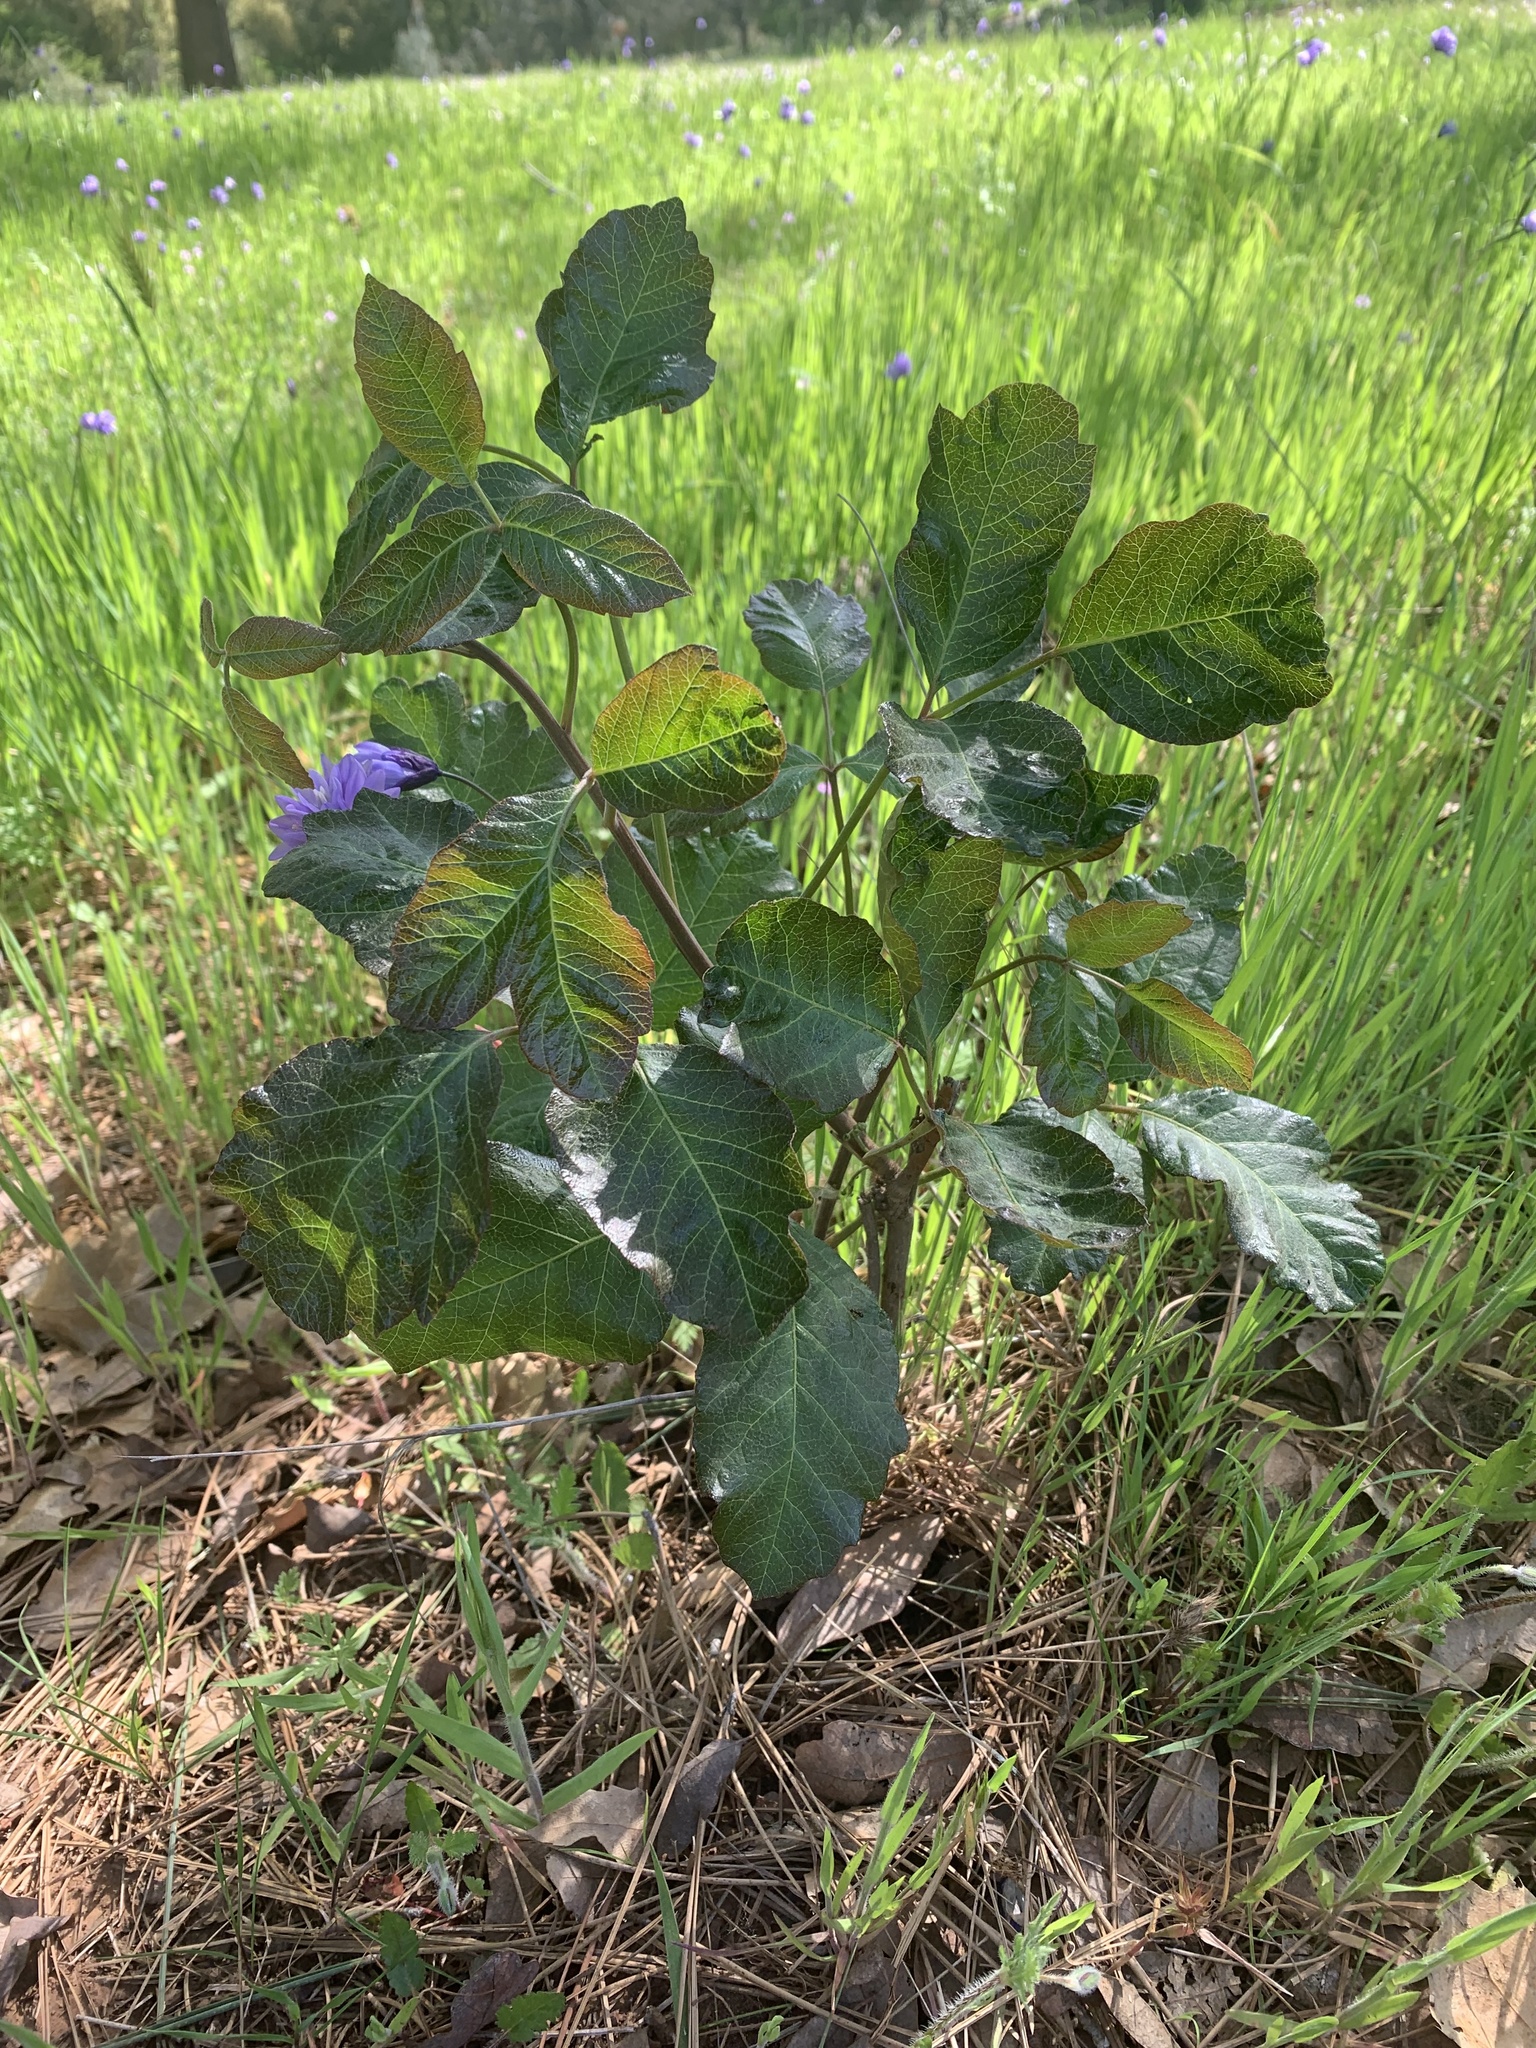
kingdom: Plantae
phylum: Tracheophyta
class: Magnoliopsida
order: Sapindales
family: Anacardiaceae
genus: Toxicodendron
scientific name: Toxicodendron diversilobum
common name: Pacific poison-oak
